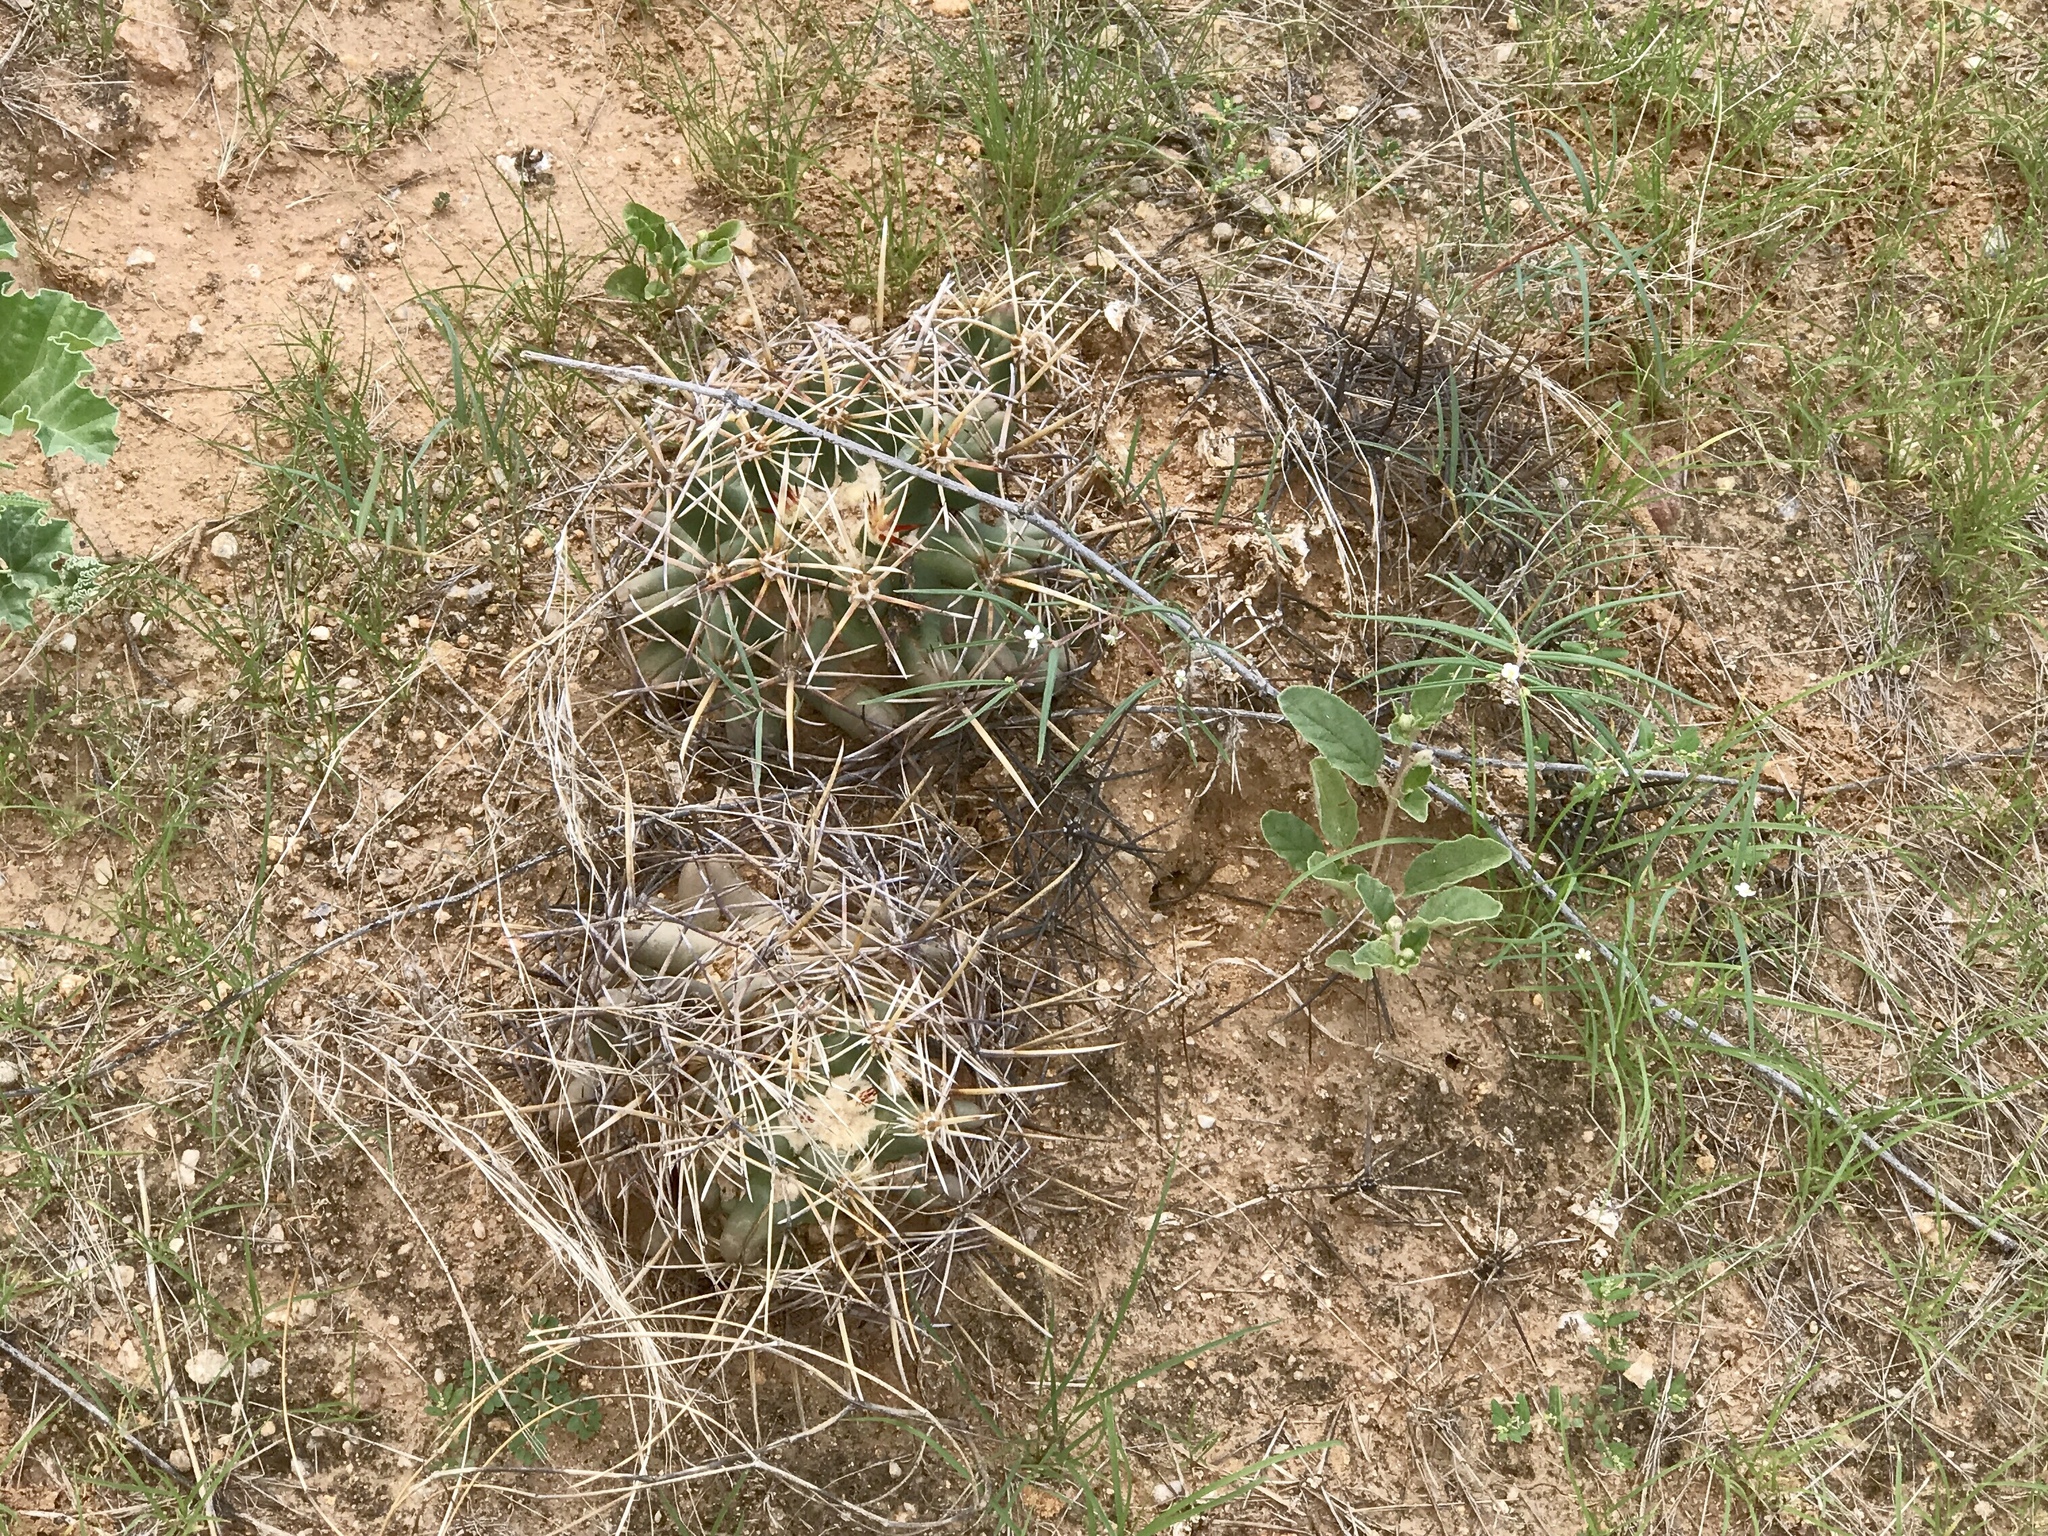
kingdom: Plantae
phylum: Tracheophyta
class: Magnoliopsida
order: Caryophyllales
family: Cactaceae
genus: Ferocactus
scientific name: Ferocactus wislizeni
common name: Candy barrel cactus
